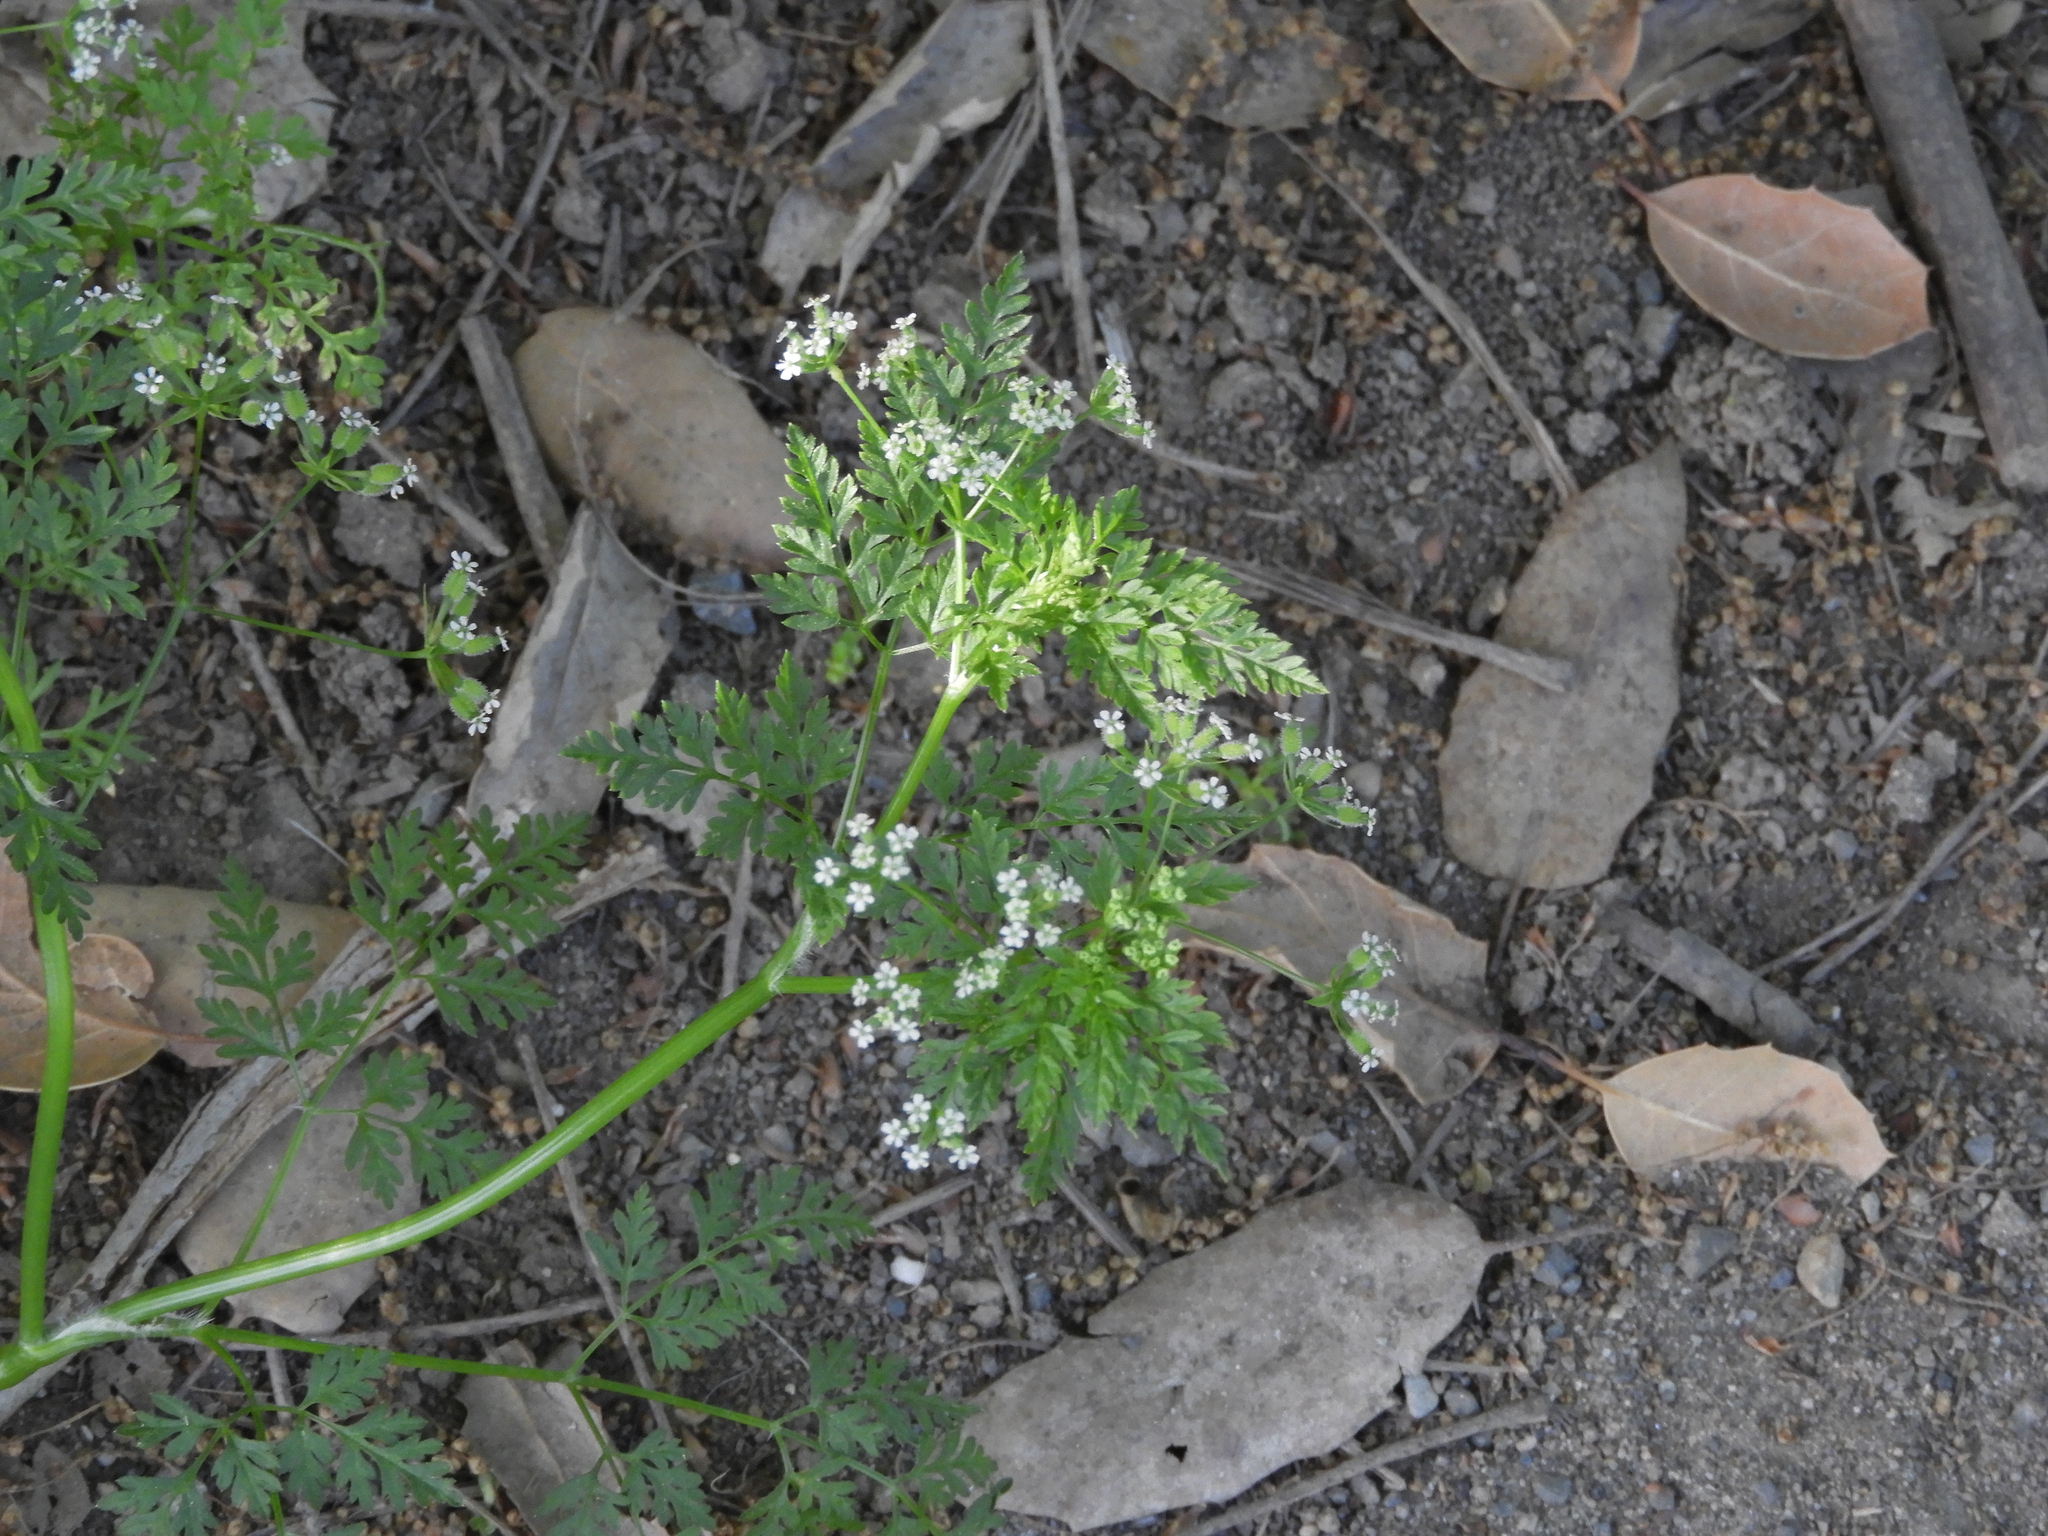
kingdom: Plantae
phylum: Tracheophyta
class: Magnoliopsida
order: Apiales
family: Apiaceae
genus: Anthriscus
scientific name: Anthriscus caucalis
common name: Bur chervil
